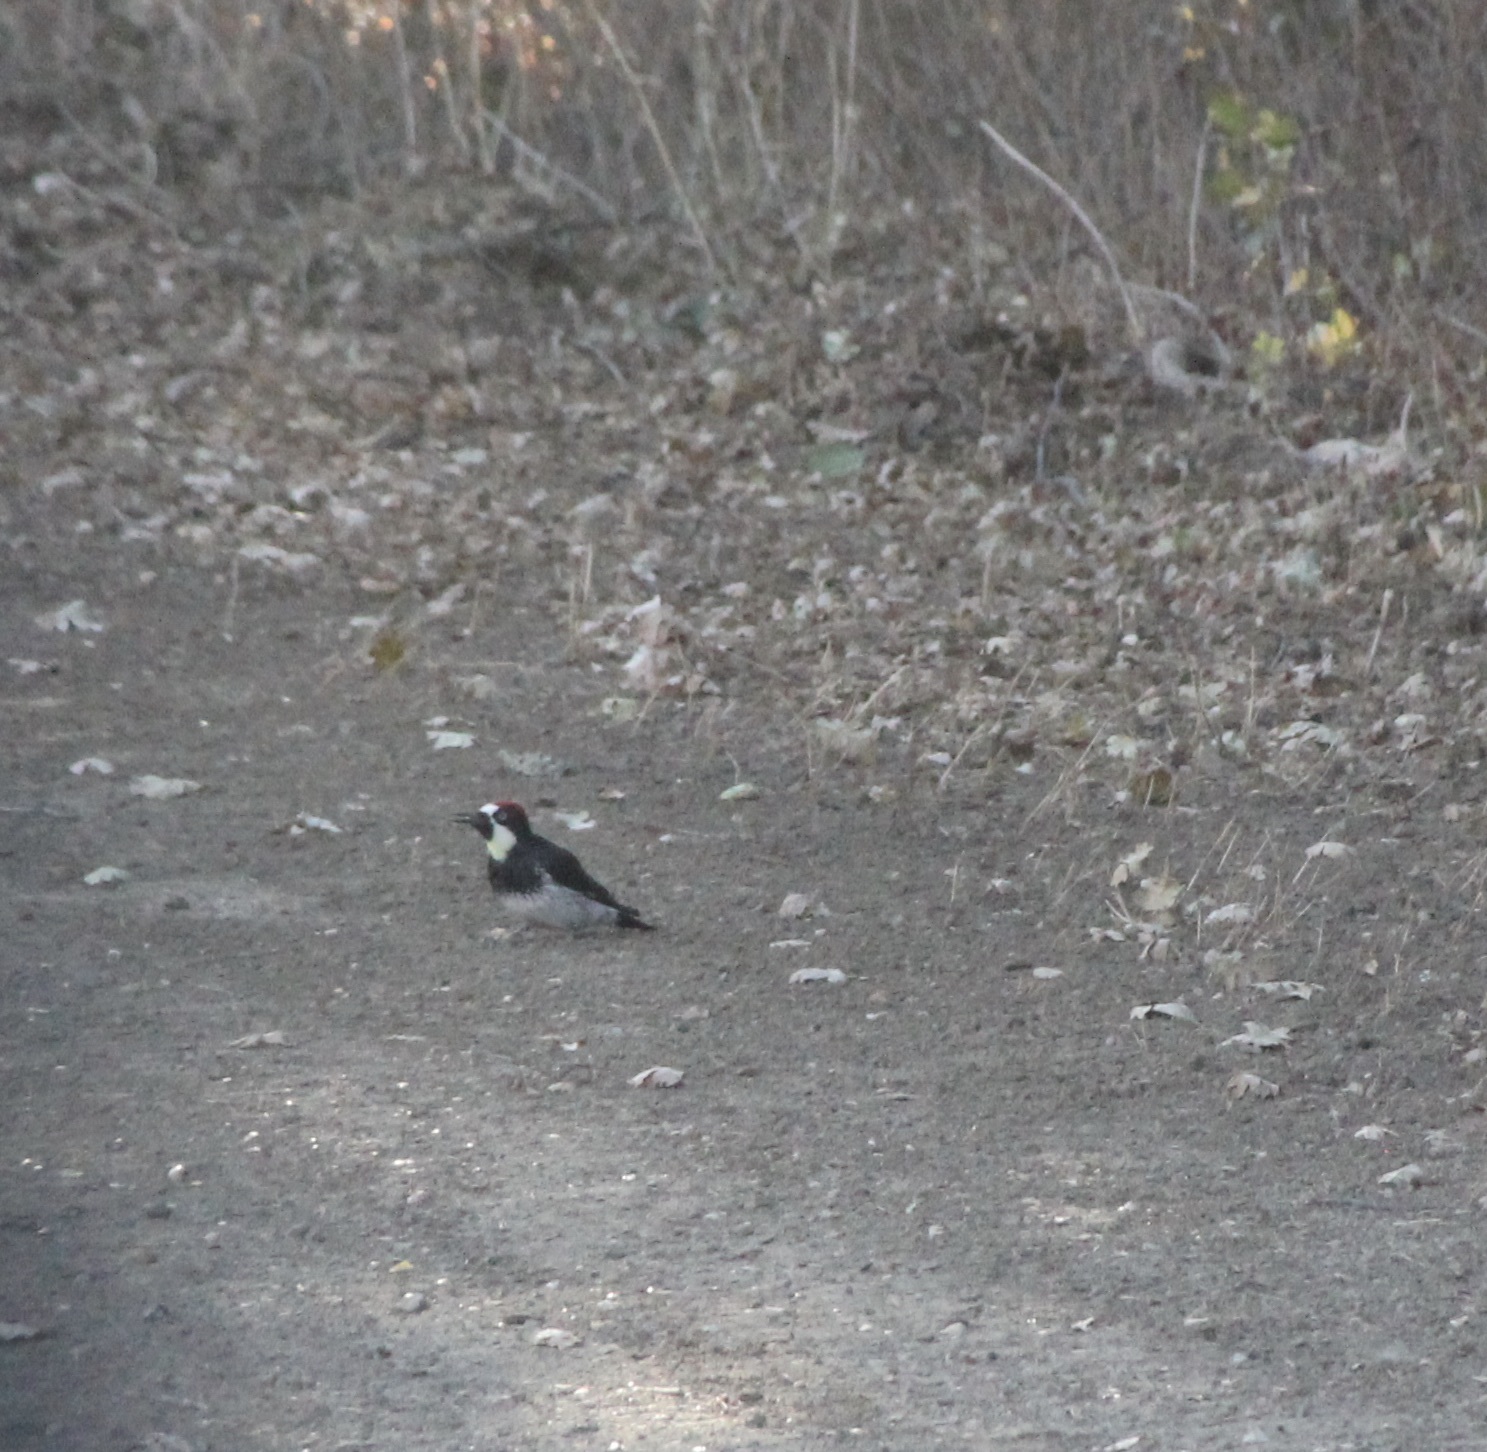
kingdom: Animalia
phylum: Chordata
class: Aves
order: Piciformes
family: Picidae
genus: Melanerpes
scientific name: Melanerpes formicivorus
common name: Acorn woodpecker
